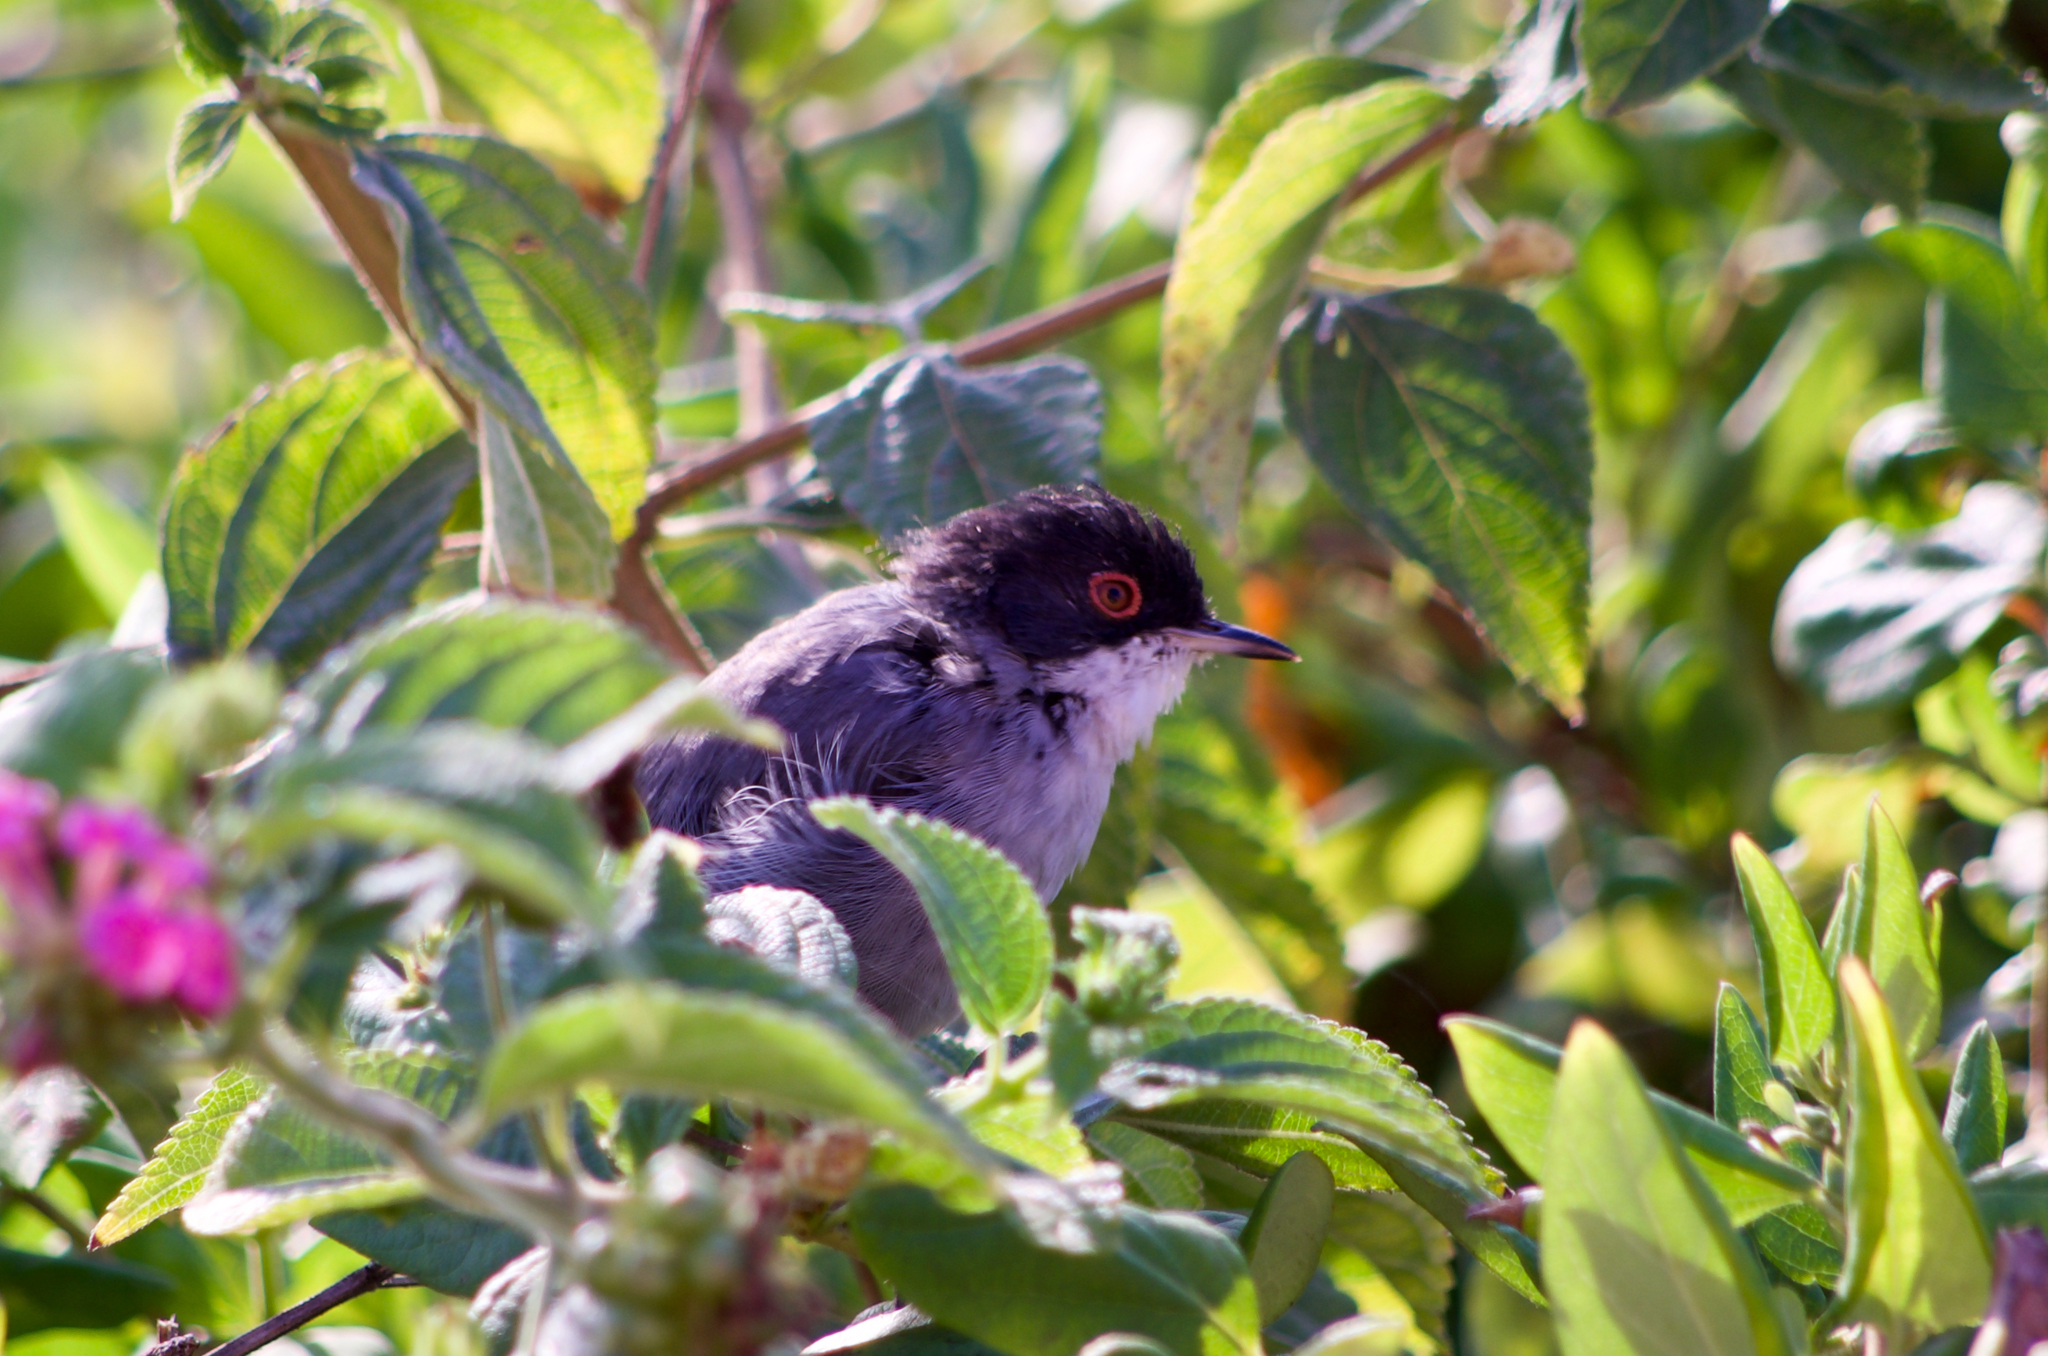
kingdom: Animalia
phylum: Chordata
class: Aves
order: Passeriformes
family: Sylviidae
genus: Curruca
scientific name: Curruca melanocephala
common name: Sardinian warbler
